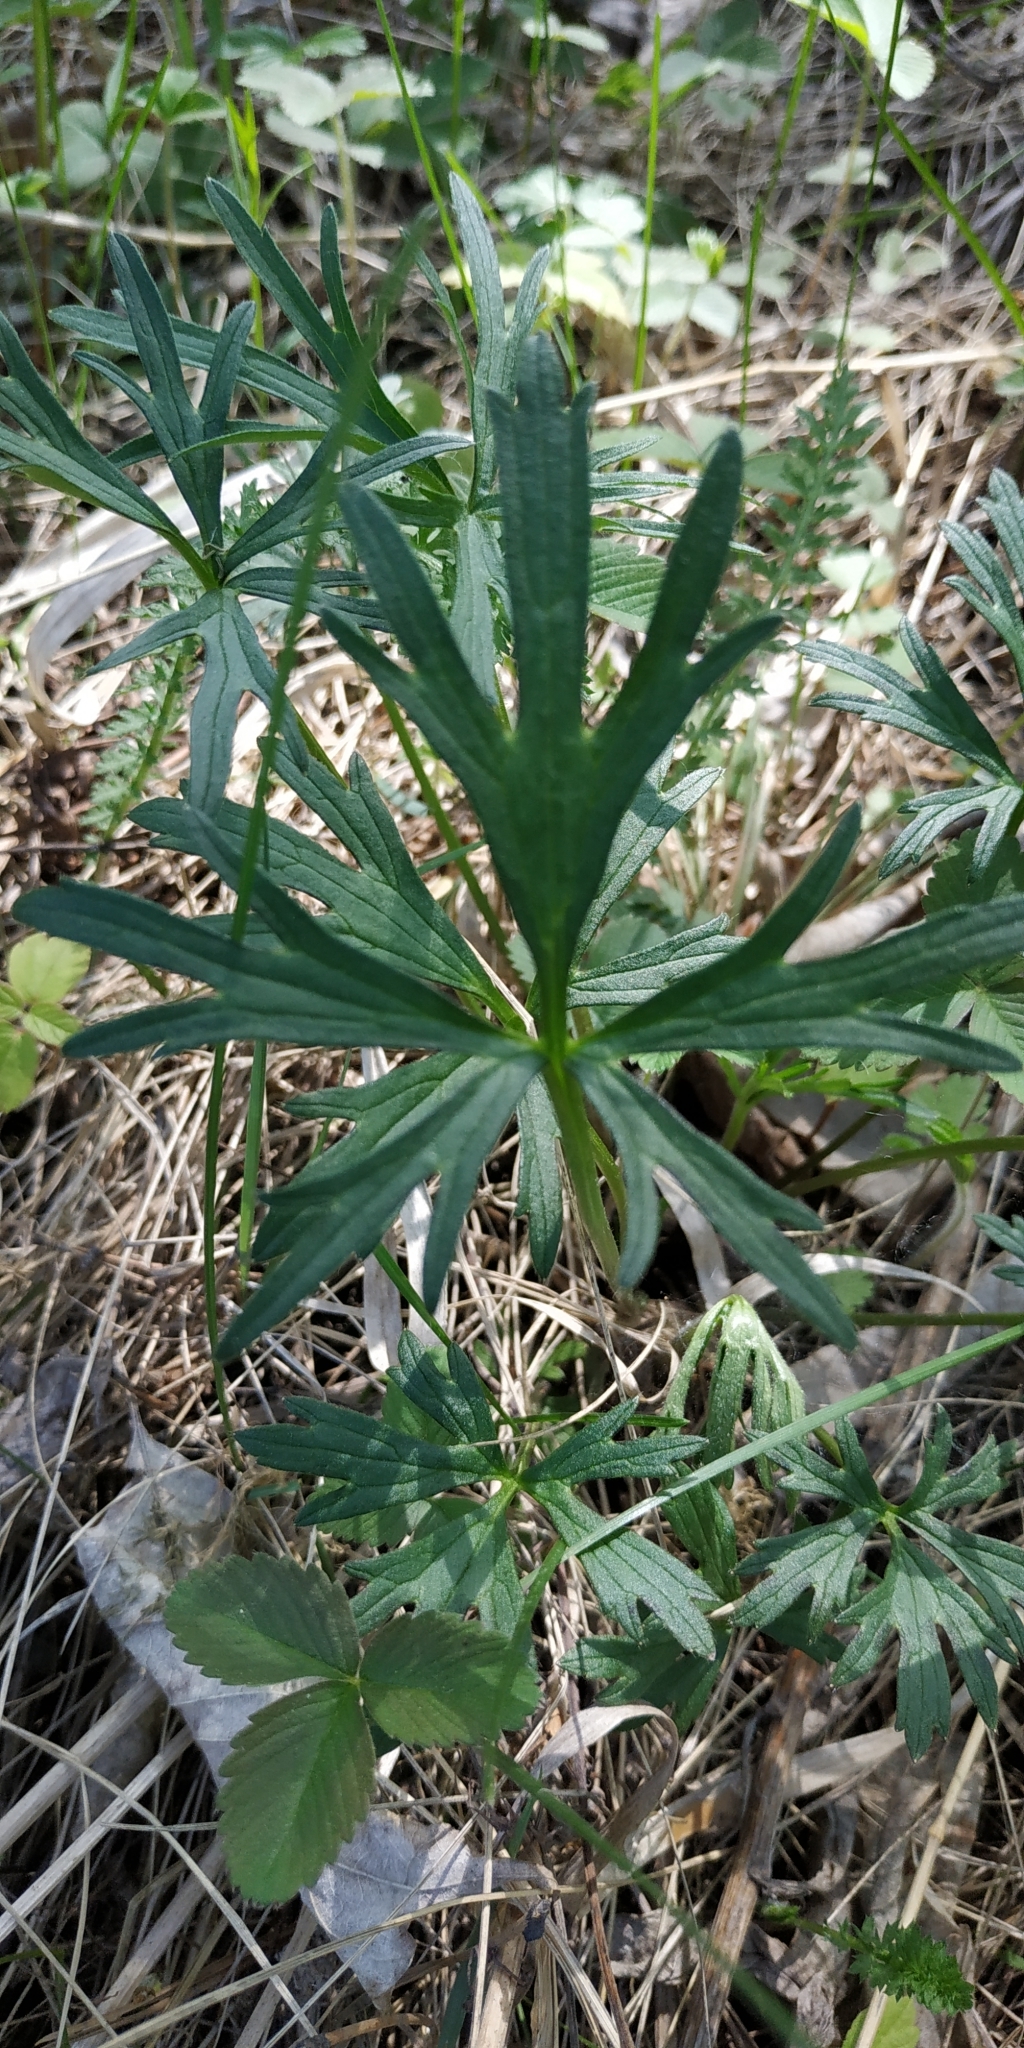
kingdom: Plantae
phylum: Tracheophyta
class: Magnoliopsida
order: Ranunculales
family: Ranunculaceae
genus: Ranunculus
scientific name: Ranunculus acris
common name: Meadow buttercup
